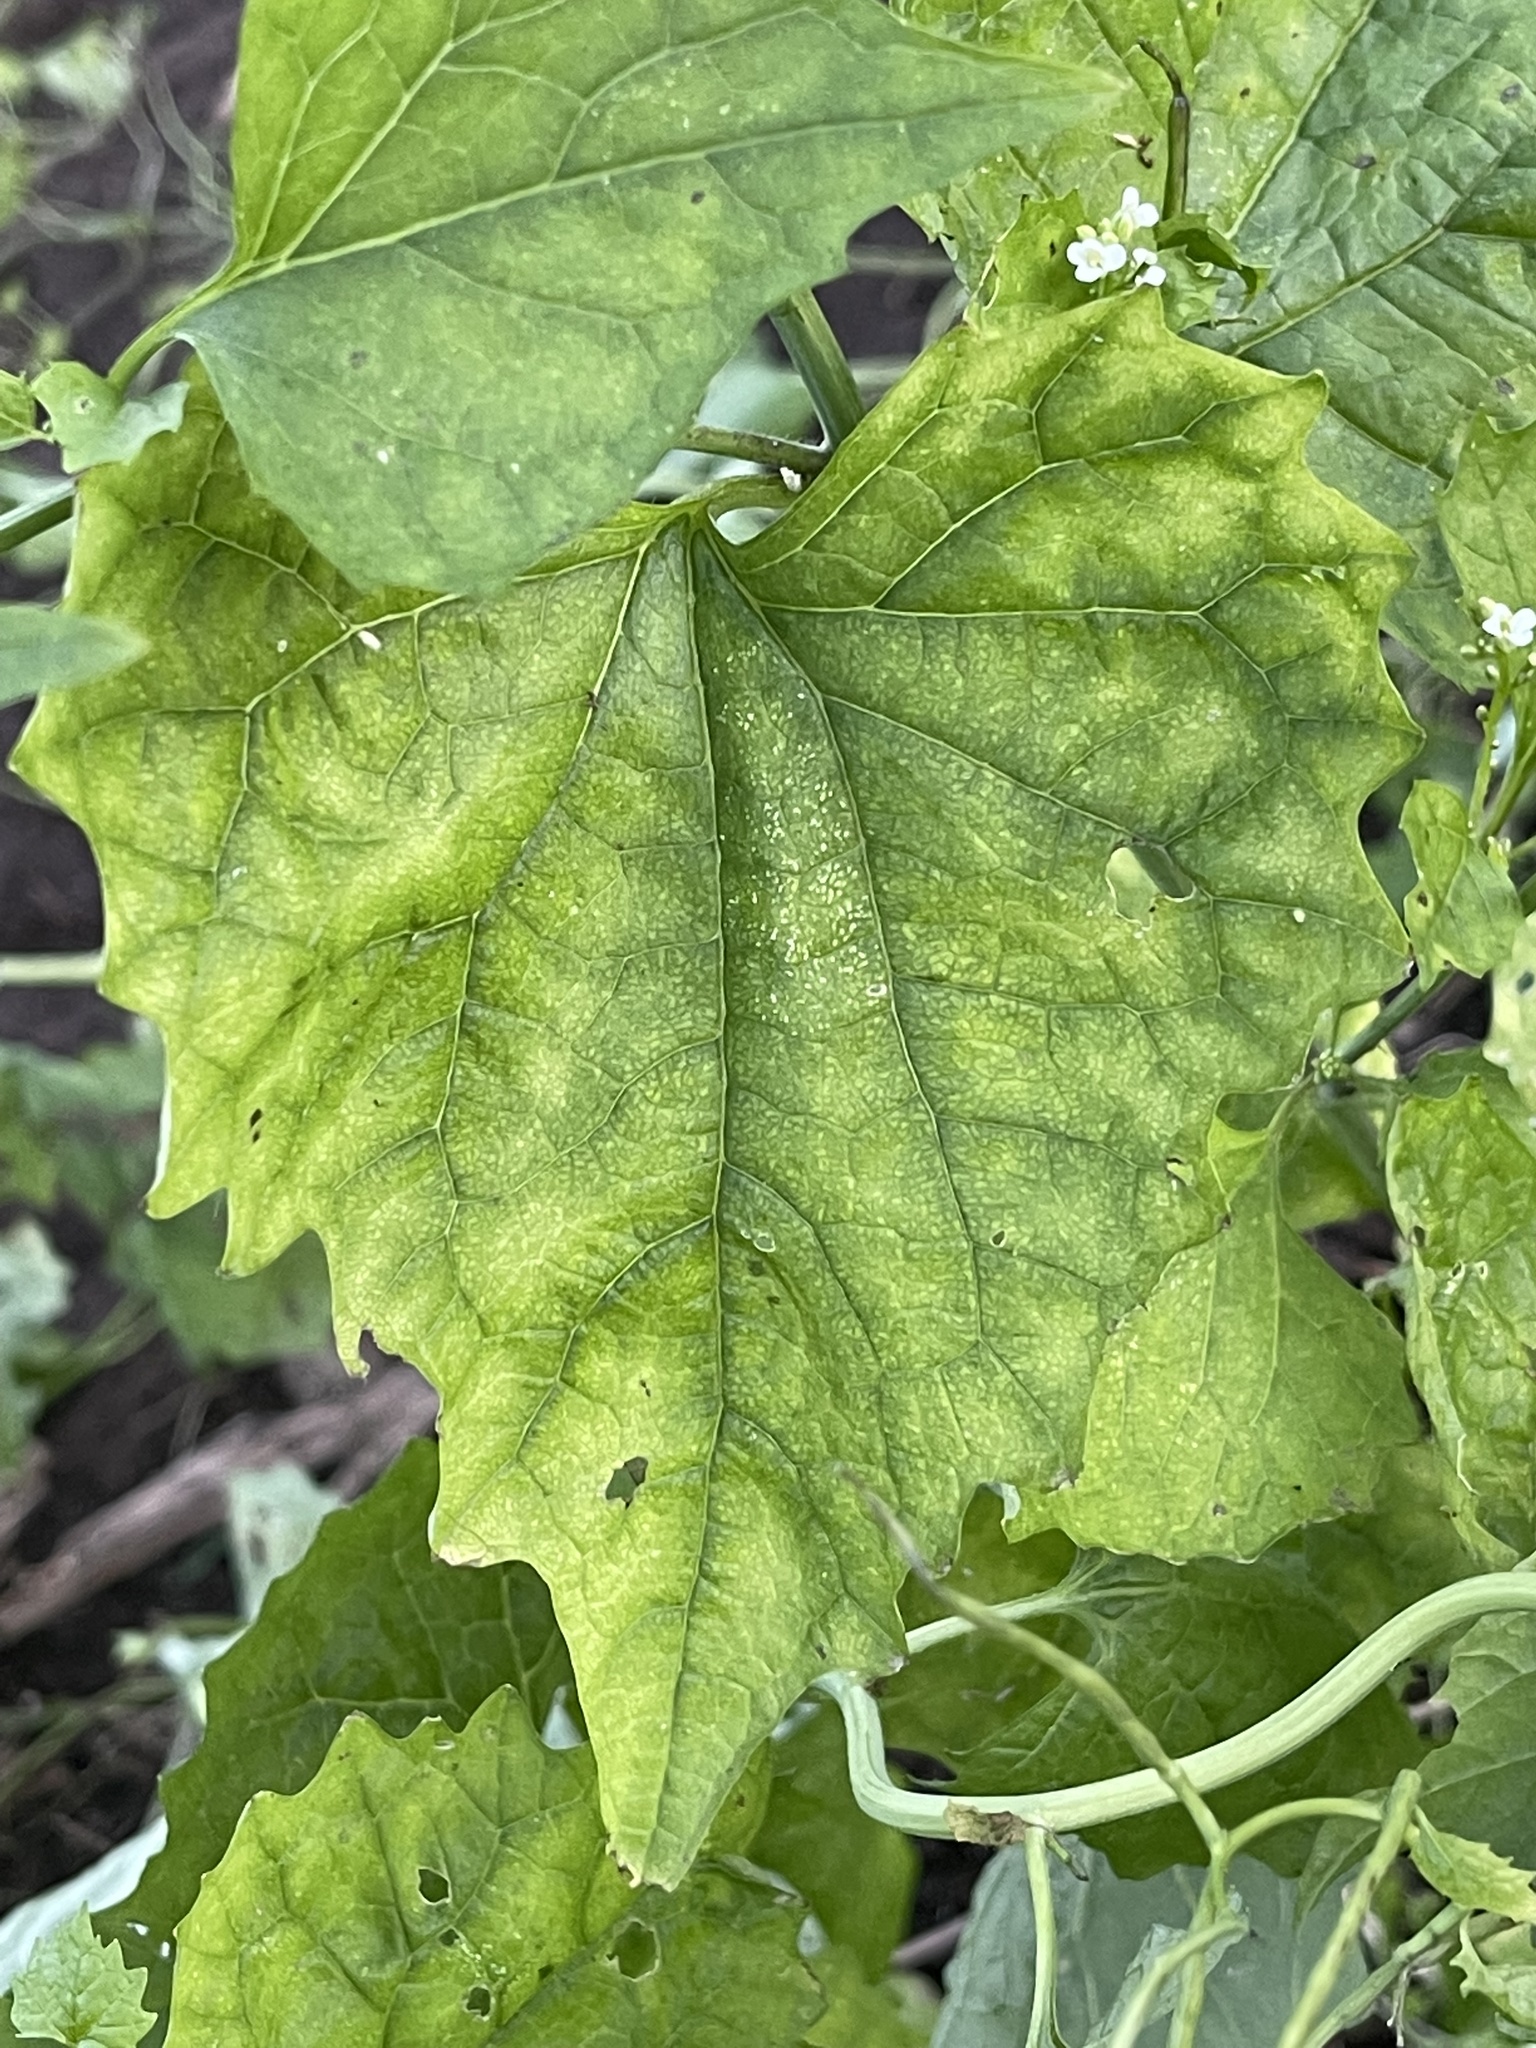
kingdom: Plantae
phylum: Tracheophyta
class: Magnoliopsida
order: Brassicales
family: Brassicaceae
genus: Alliaria
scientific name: Alliaria petiolata
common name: Garlic mustard
